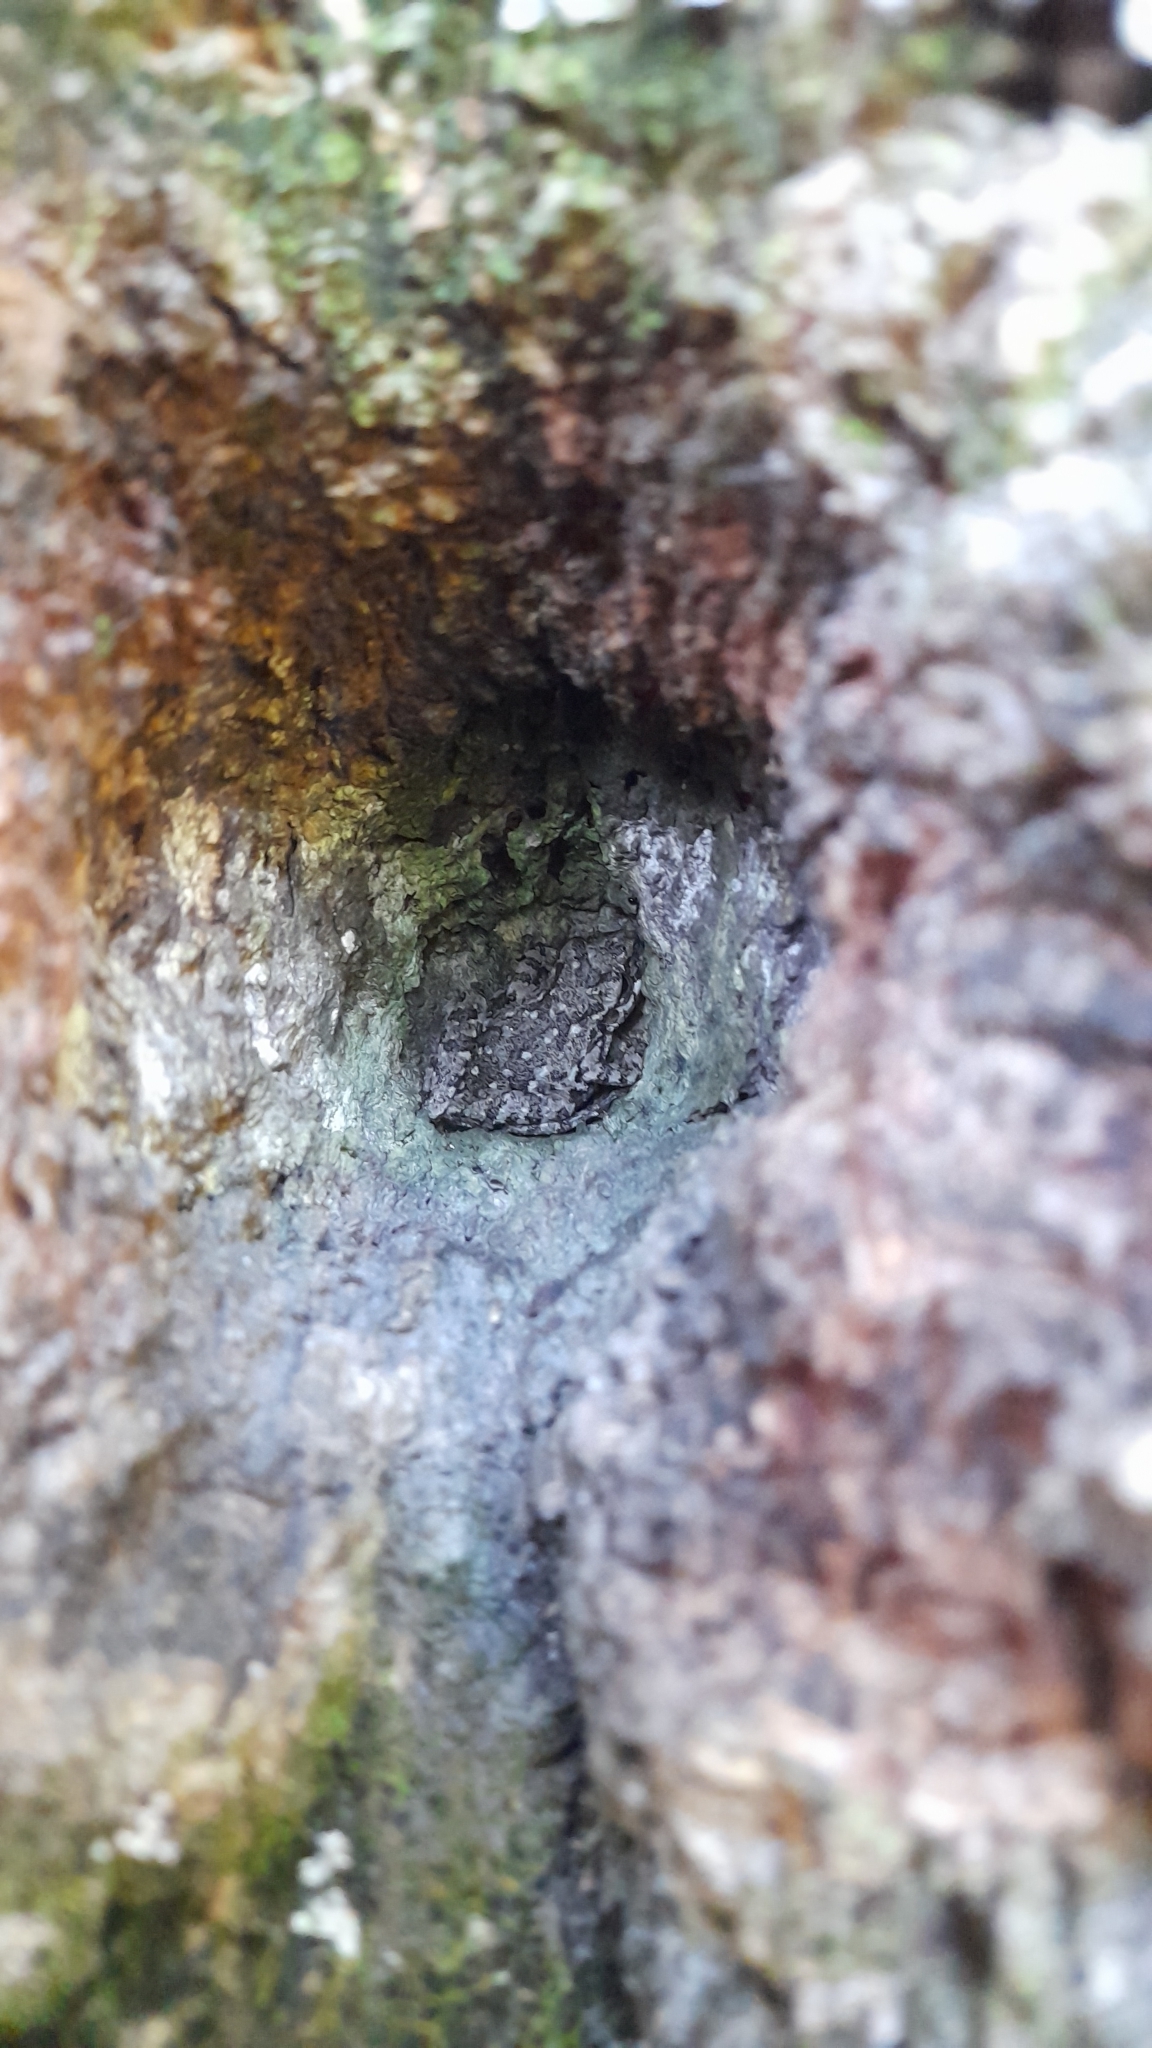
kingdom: Animalia
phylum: Chordata
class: Amphibia
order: Anura
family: Hylidae
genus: Scinax
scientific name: Scinax granulatus
